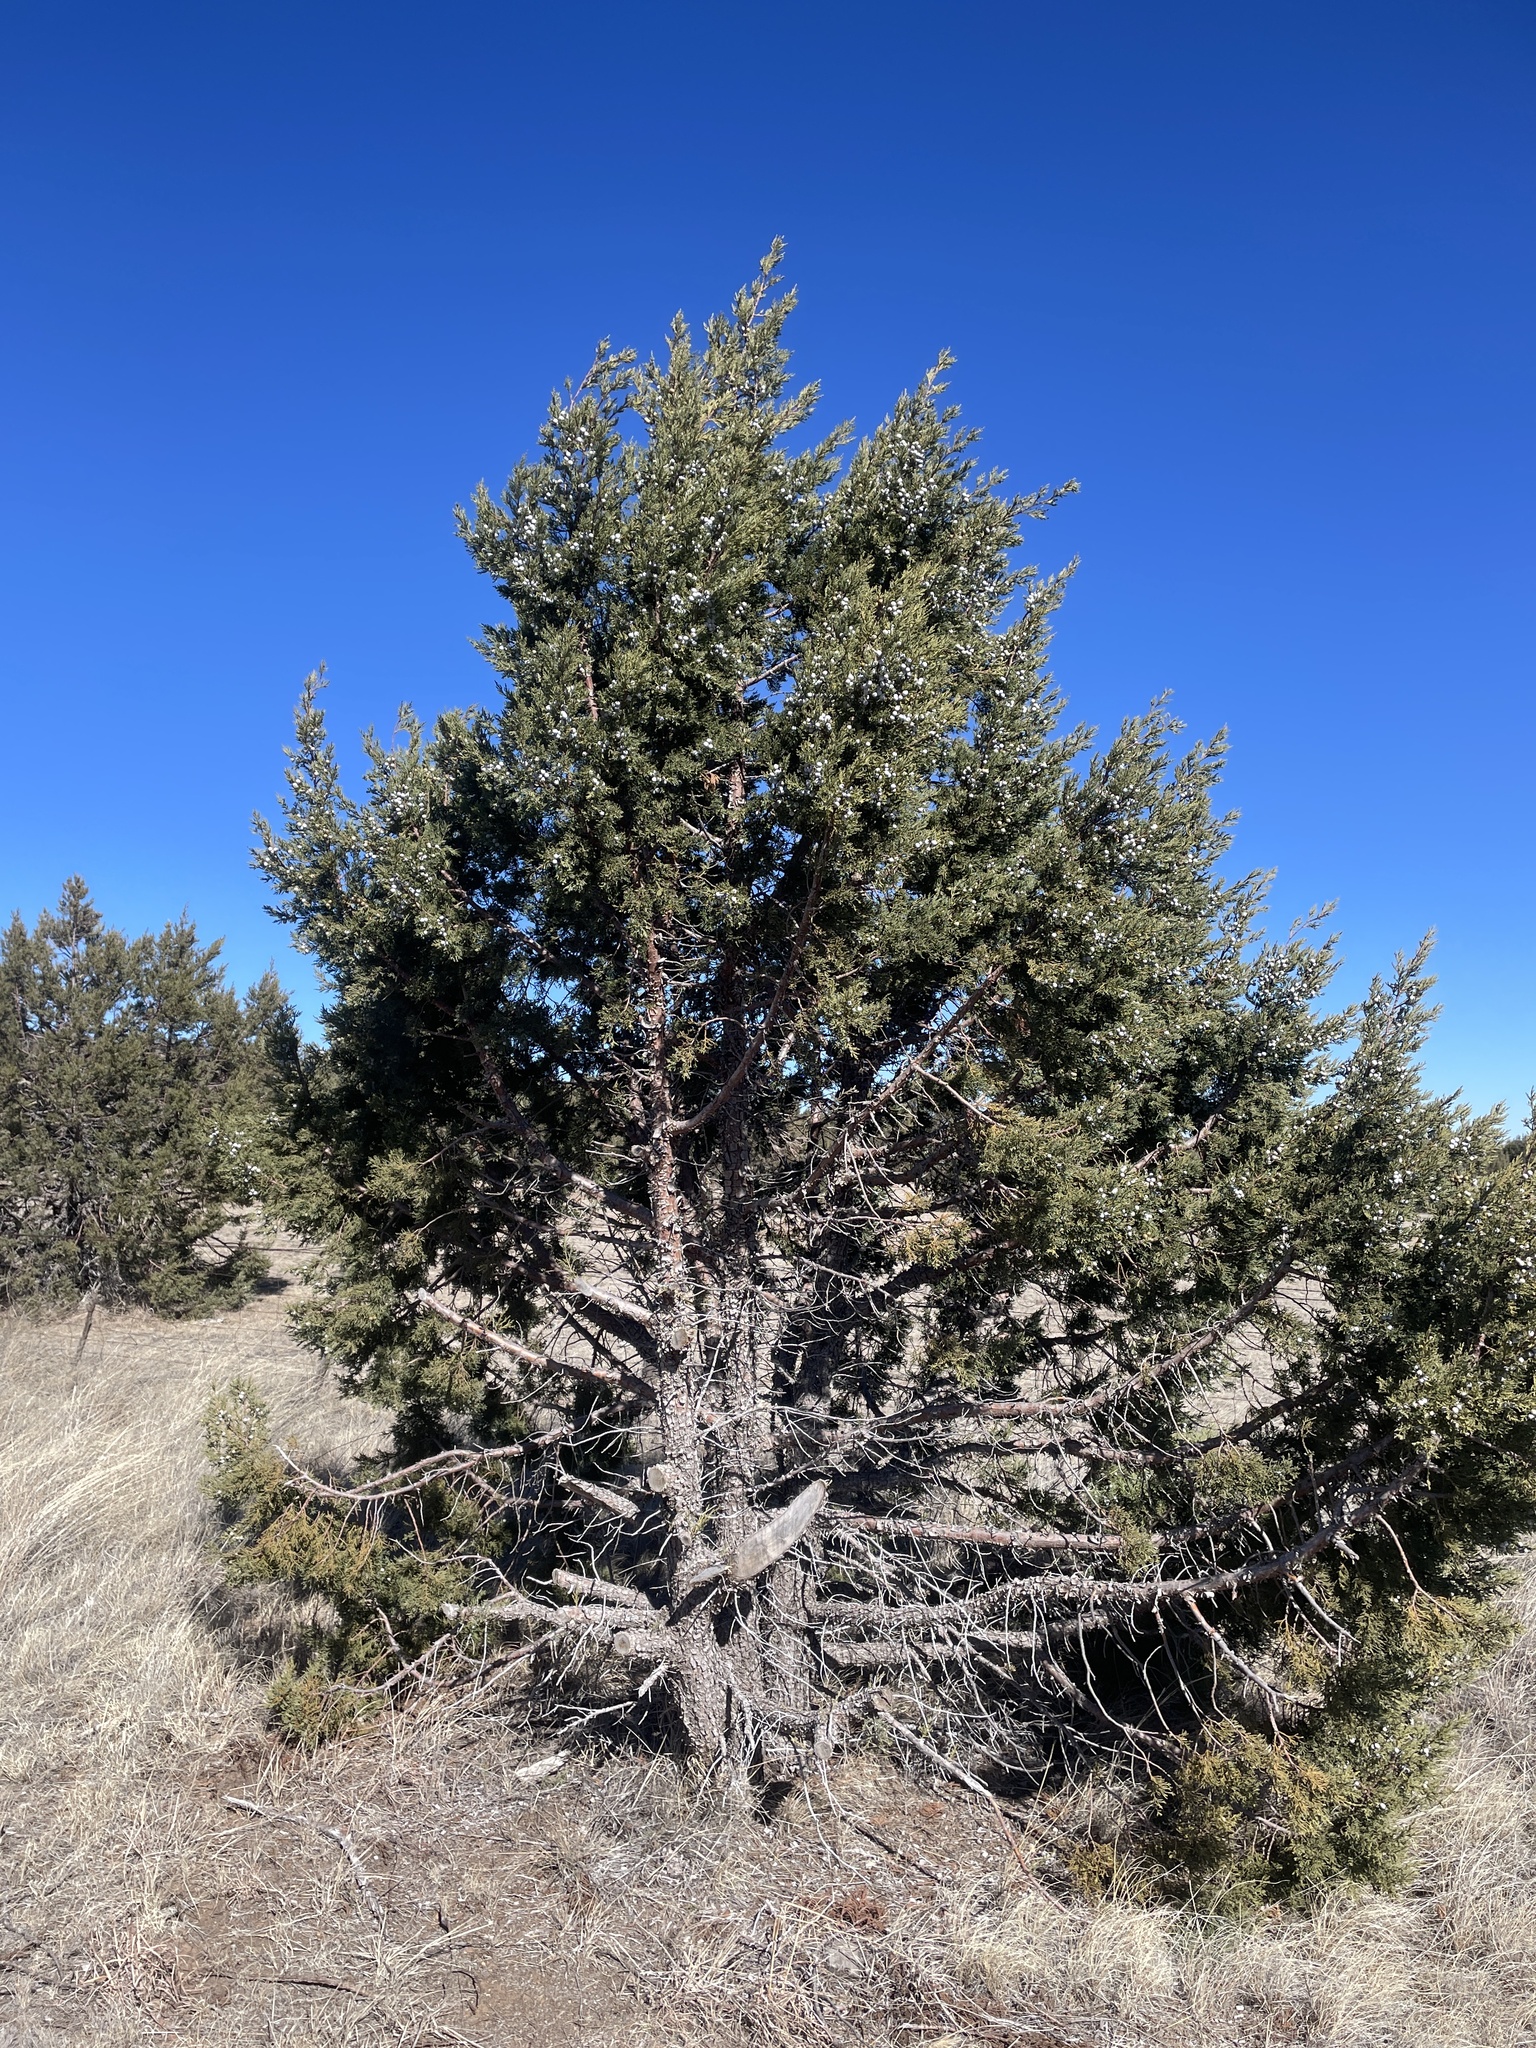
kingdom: Plantae
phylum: Tracheophyta
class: Pinopsida
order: Pinales
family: Cupressaceae
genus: Juniperus
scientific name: Juniperus deppeana
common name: Alligator juniper
